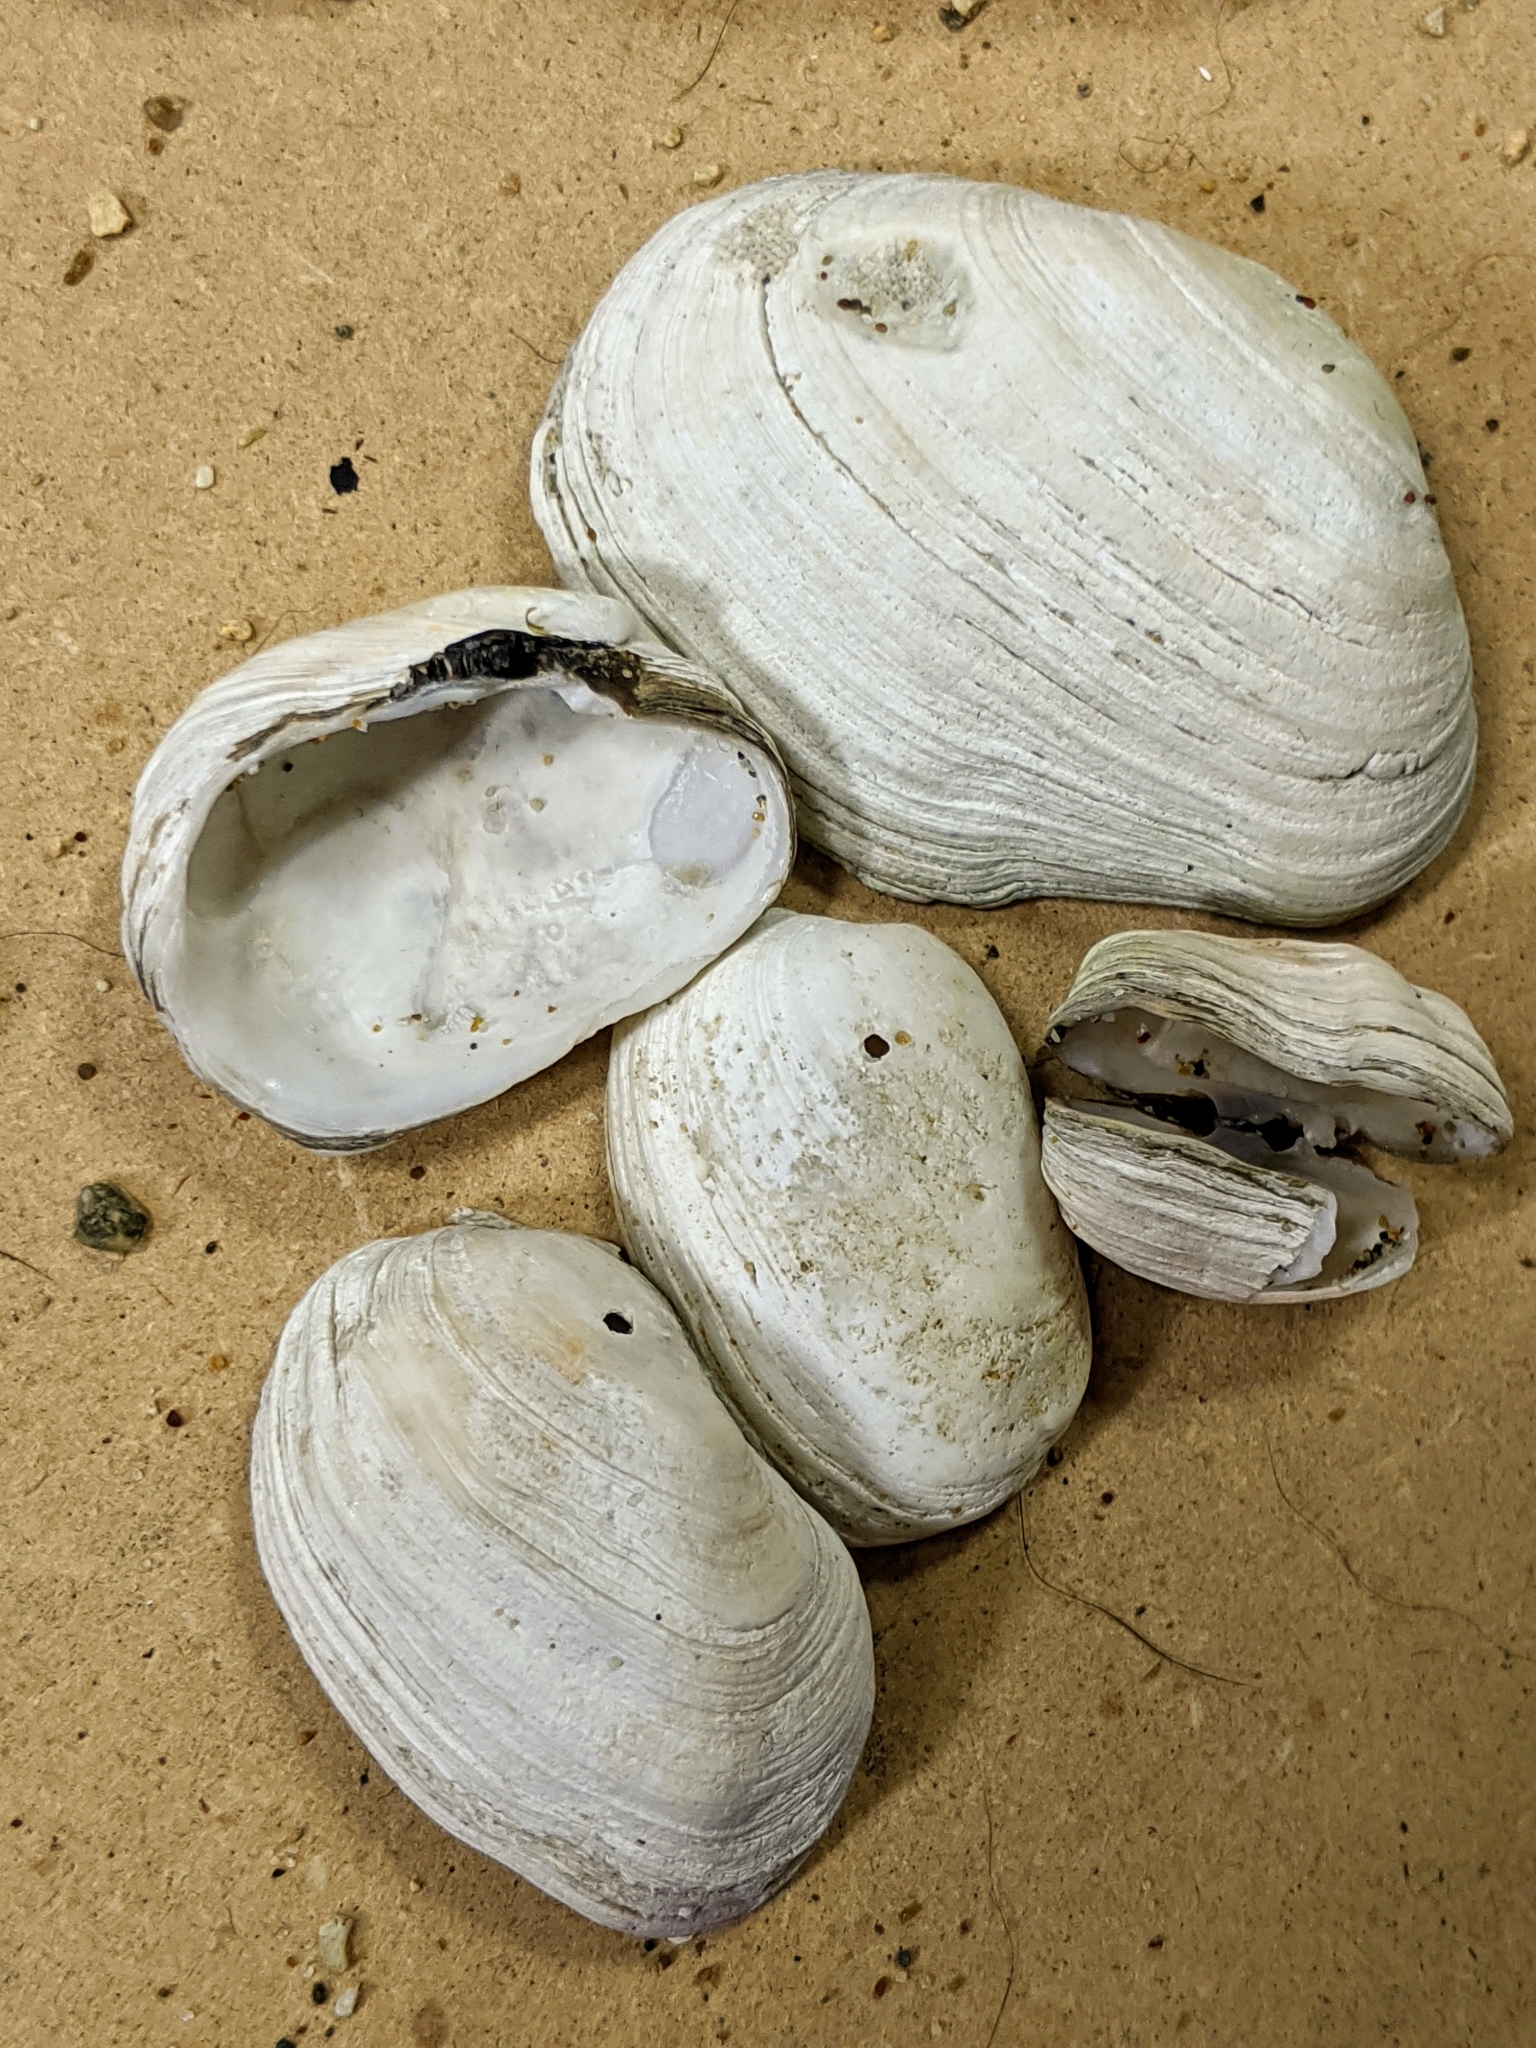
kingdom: Animalia
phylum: Mollusca
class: Bivalvia
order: Venerida
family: Veneridae
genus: Petricola
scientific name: Petricola carditoides
